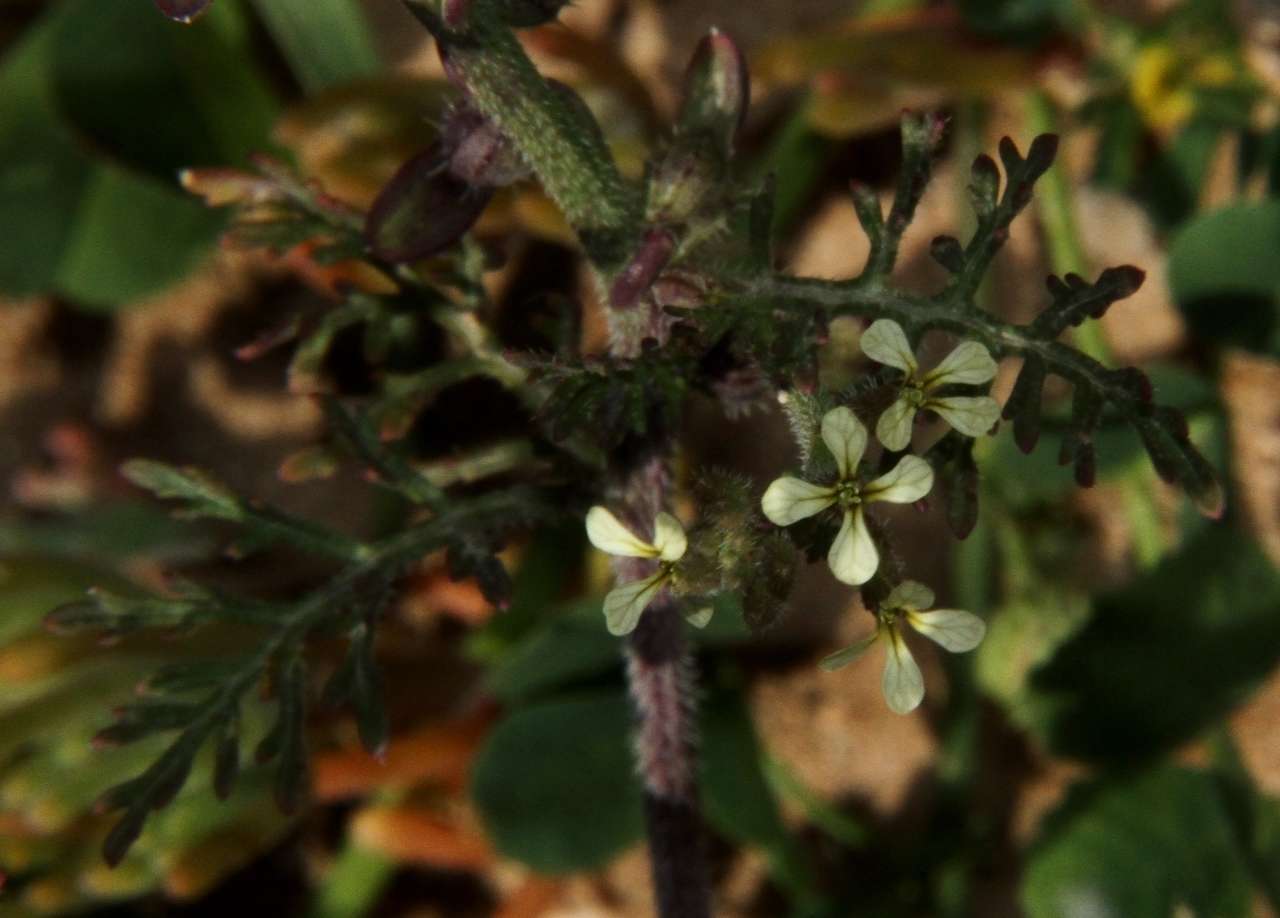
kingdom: Plantae
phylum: Tracheophyta
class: Magnoliopsida
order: Brassicales
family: Brassicaceae
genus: Carrichtera
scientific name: Carrichtera annua
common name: Cress rocket
